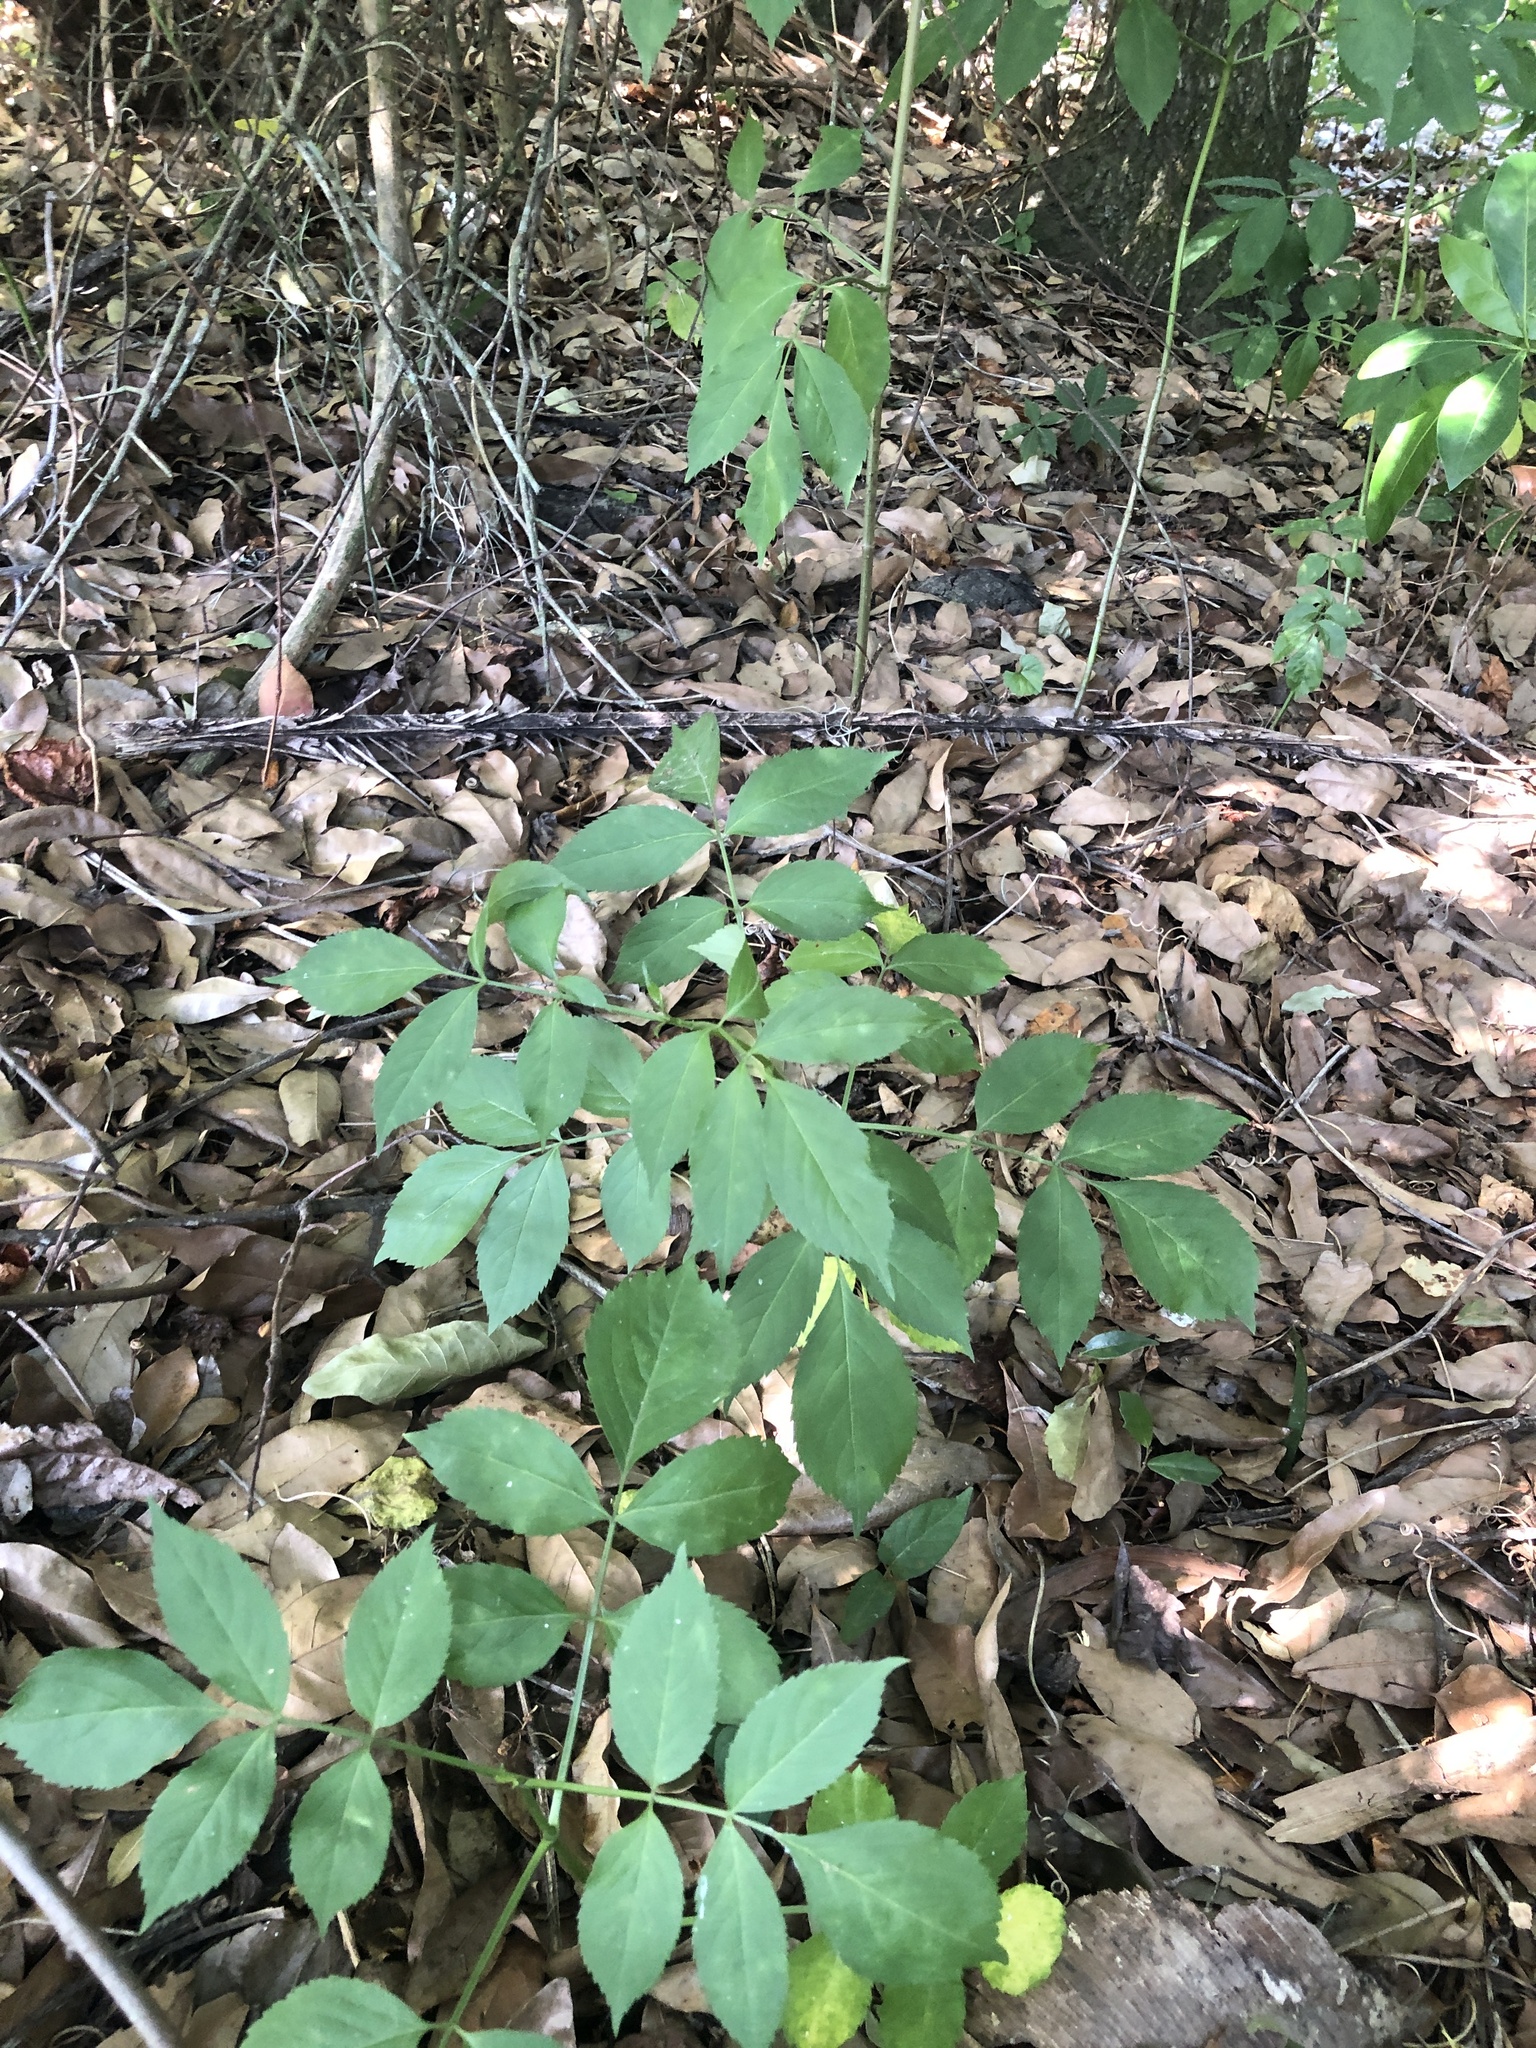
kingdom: Plantae
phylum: Tracheophyta
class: Magnoliopsida
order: Dipsacales
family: Viburnaceae
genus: Sambucus
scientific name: Sambucus canadensis
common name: American elder
